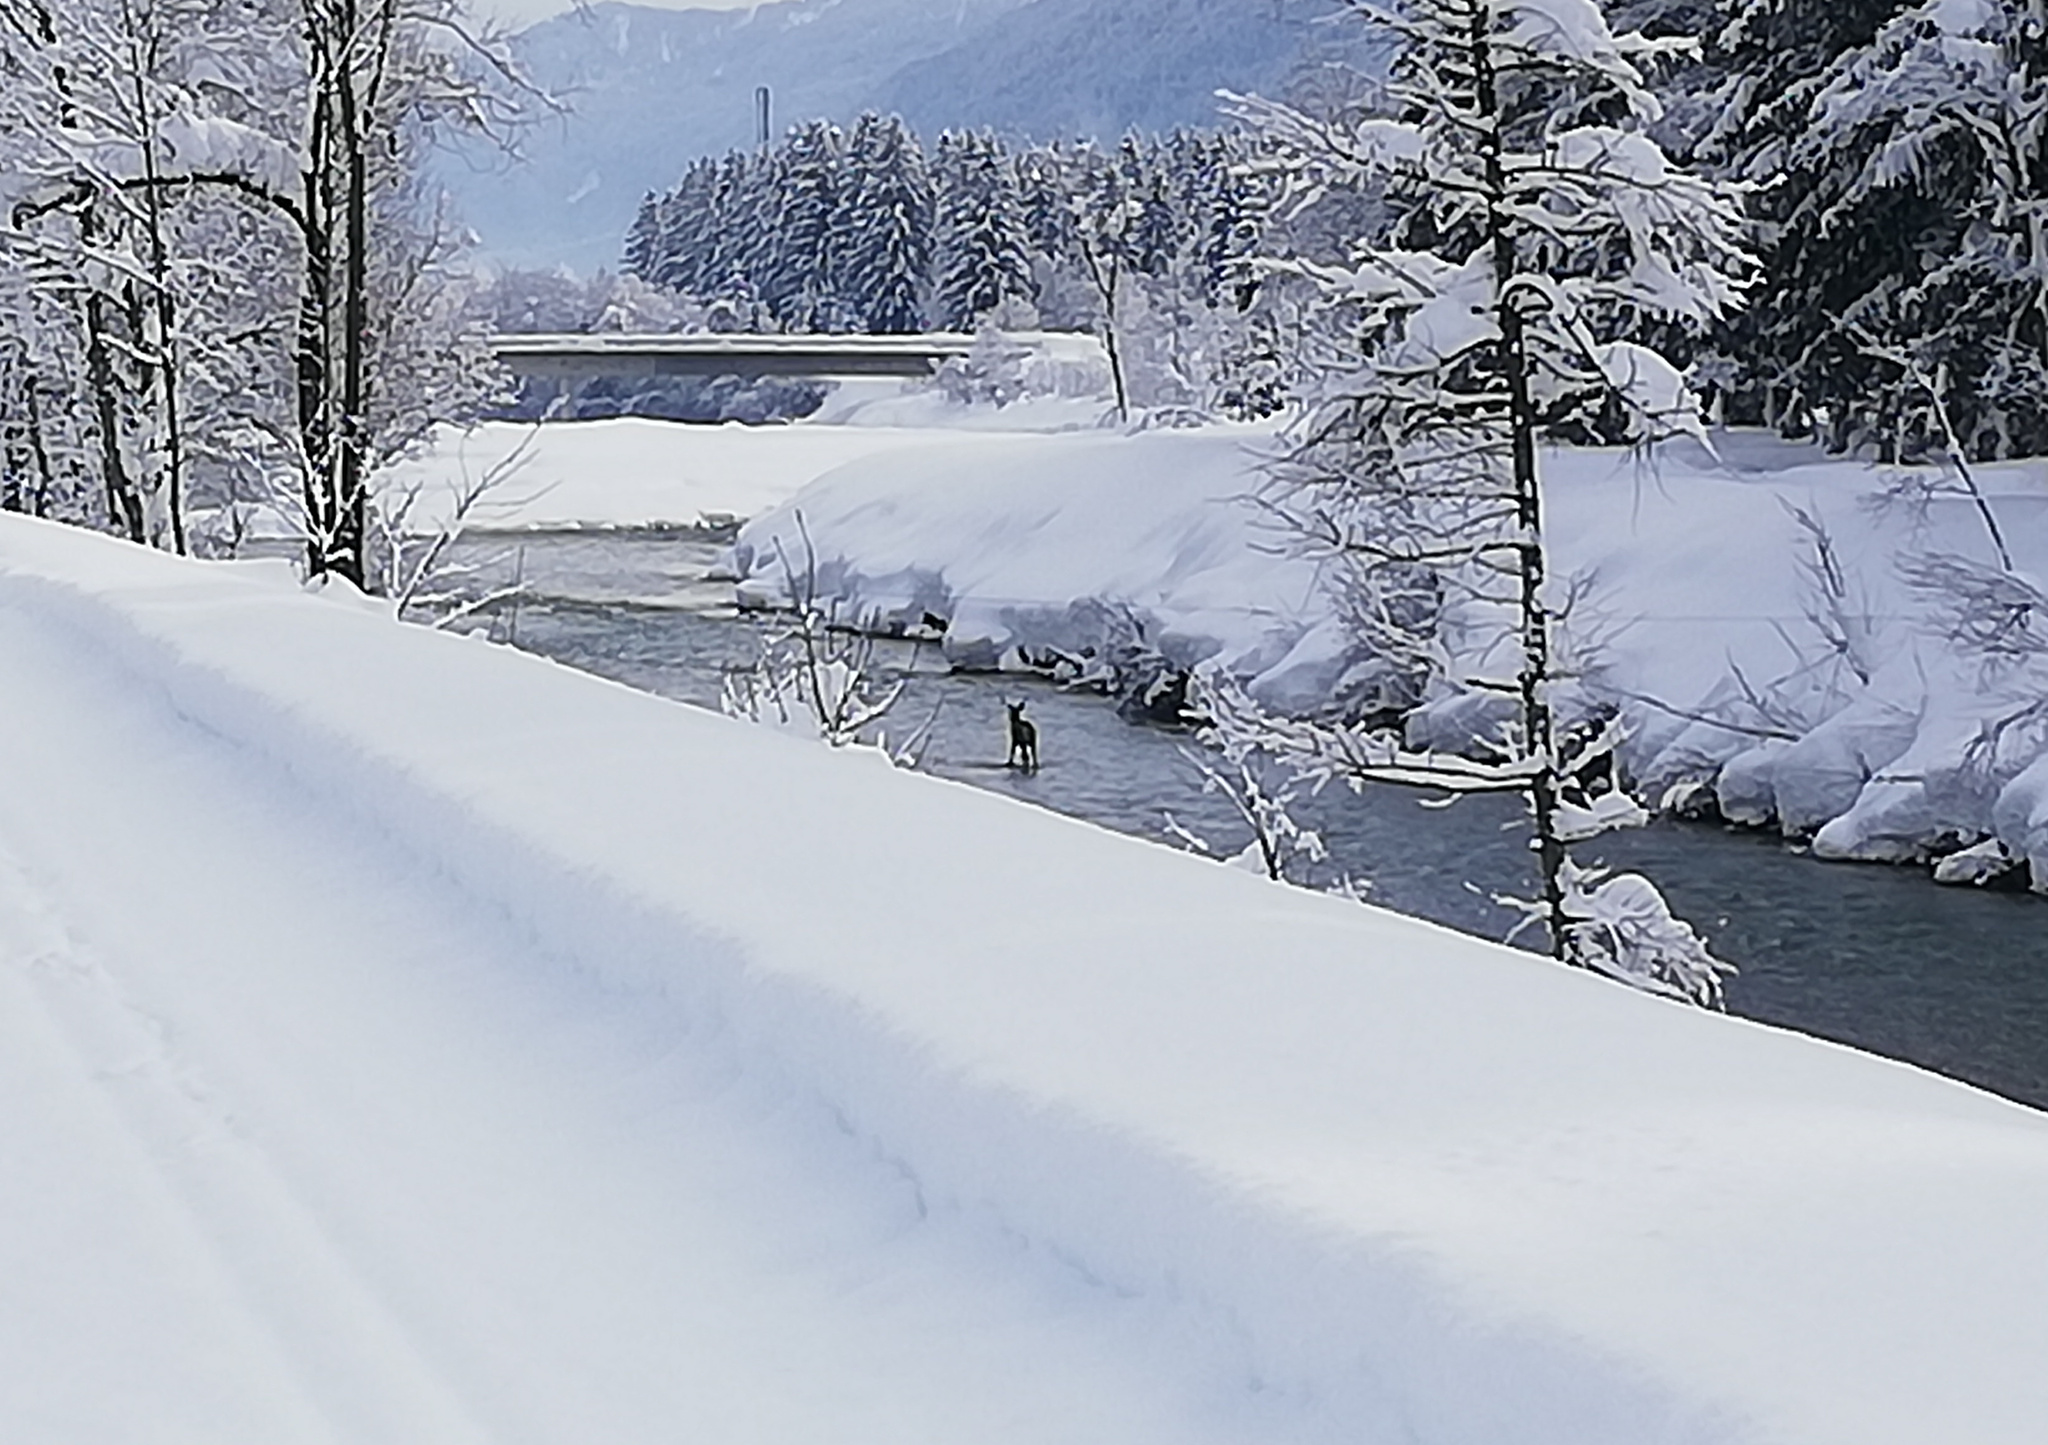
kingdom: Animalia
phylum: Chordata
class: Mammalia
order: Artiodactyla
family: Cervidae
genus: Cervus
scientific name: Cervus elaphus
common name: Red deer
